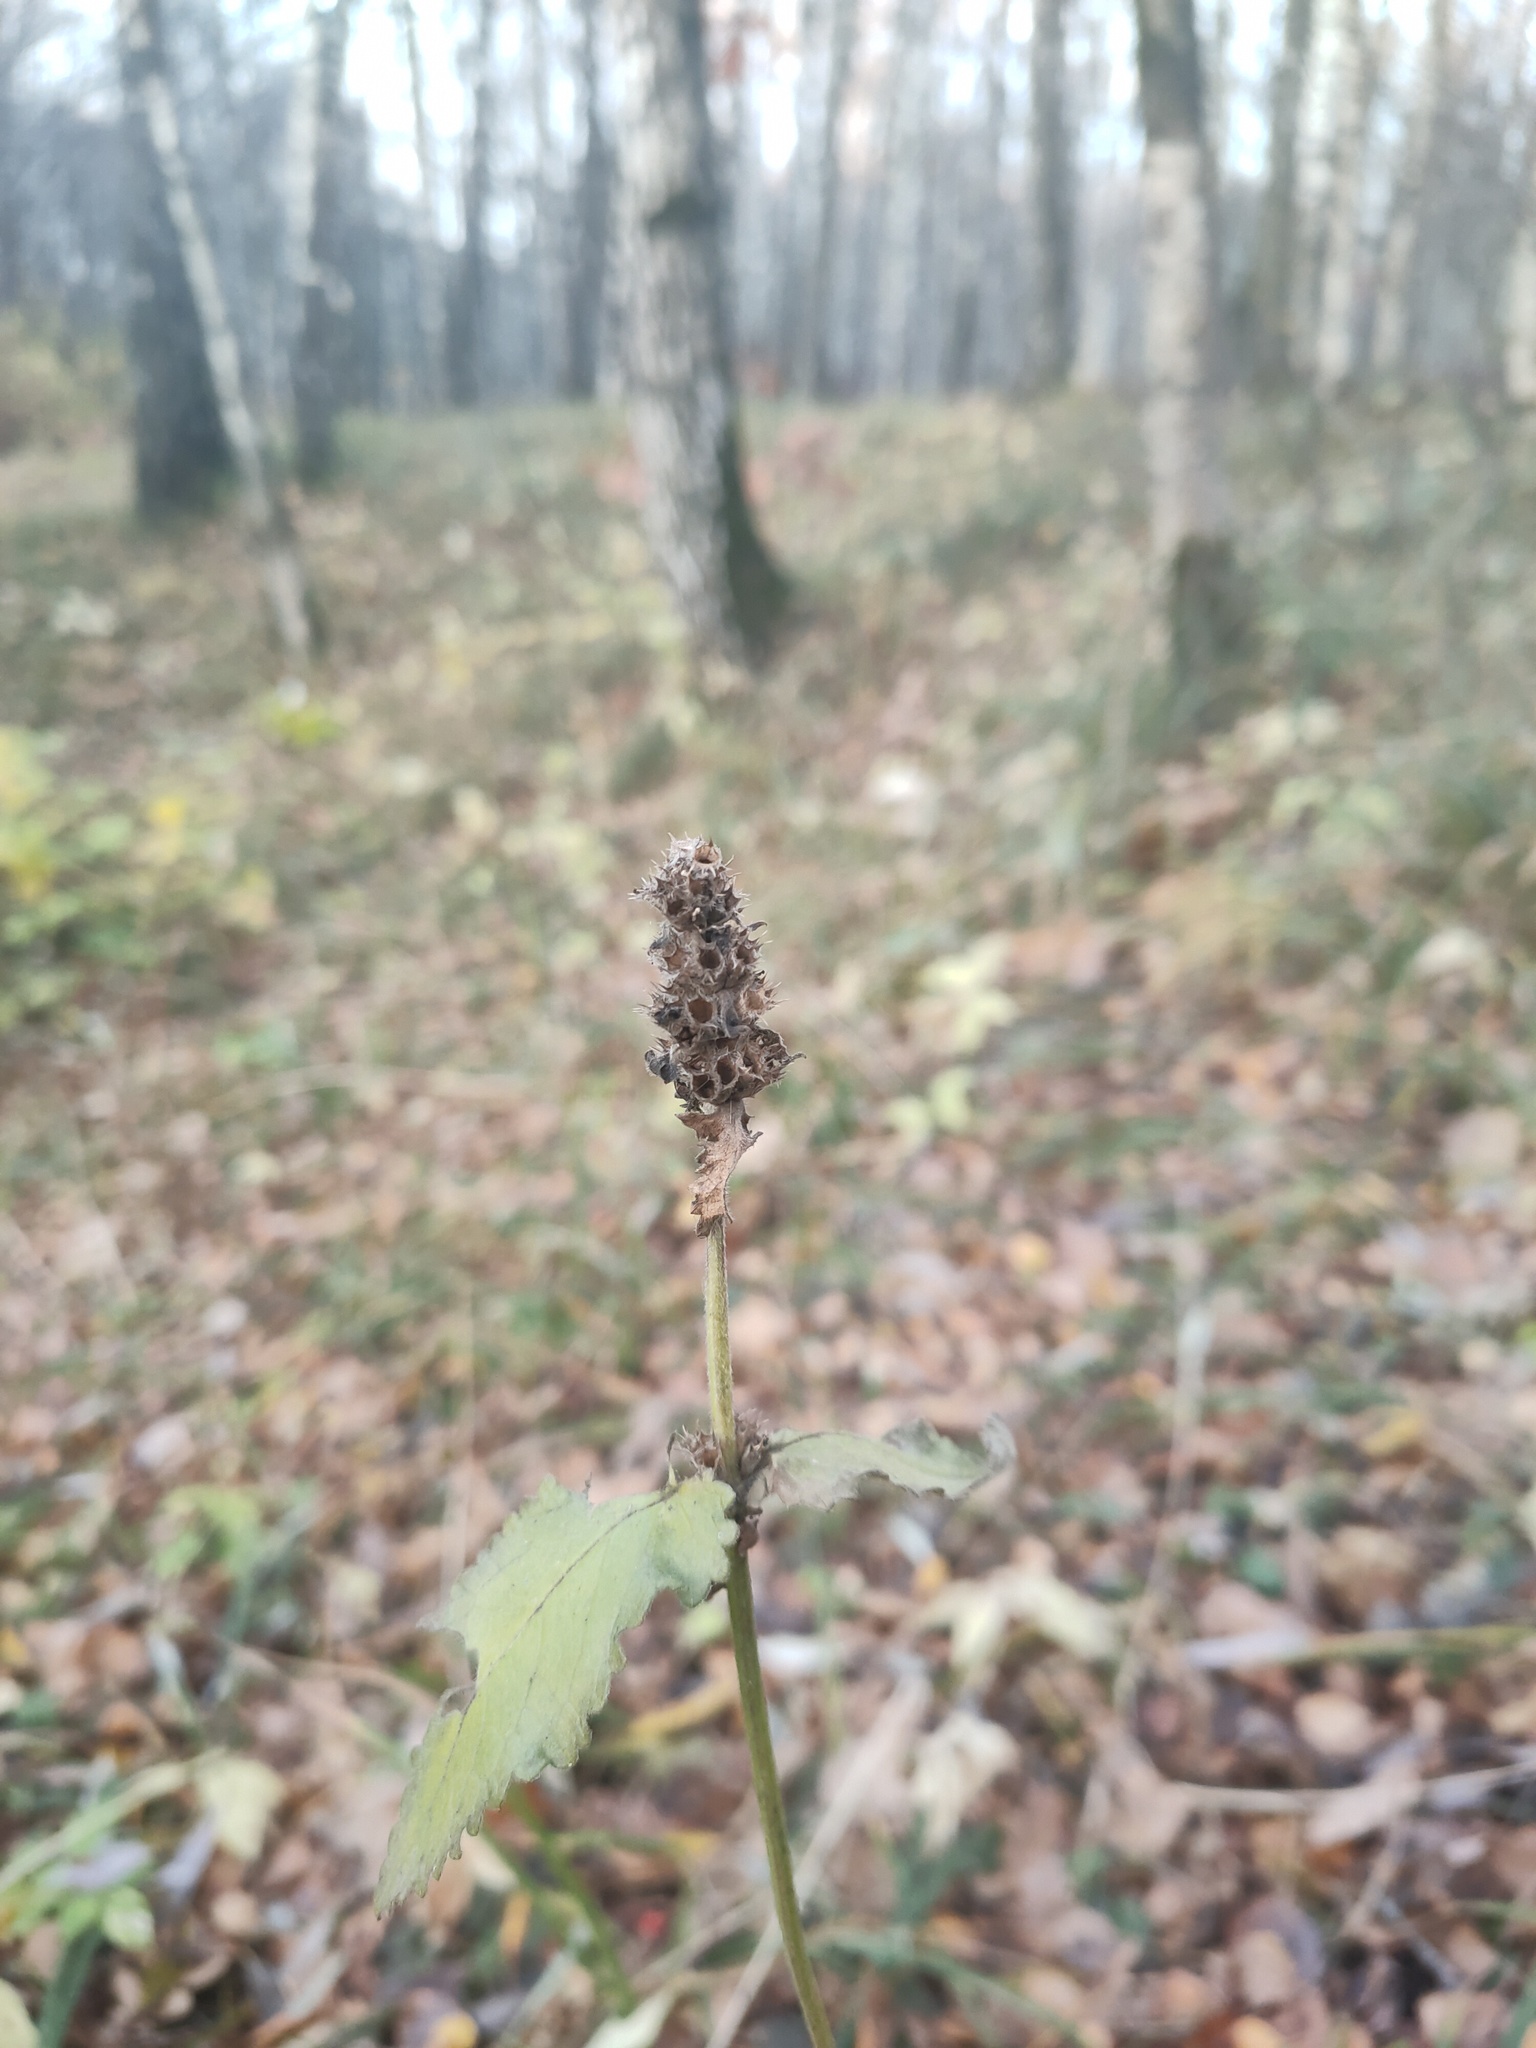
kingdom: Plantae
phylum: Tracheophyta
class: Magnoliopsida
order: Lamiales
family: Lamiaceae
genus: Betonica
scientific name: Betonica officinalis
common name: Bishop's-wort
